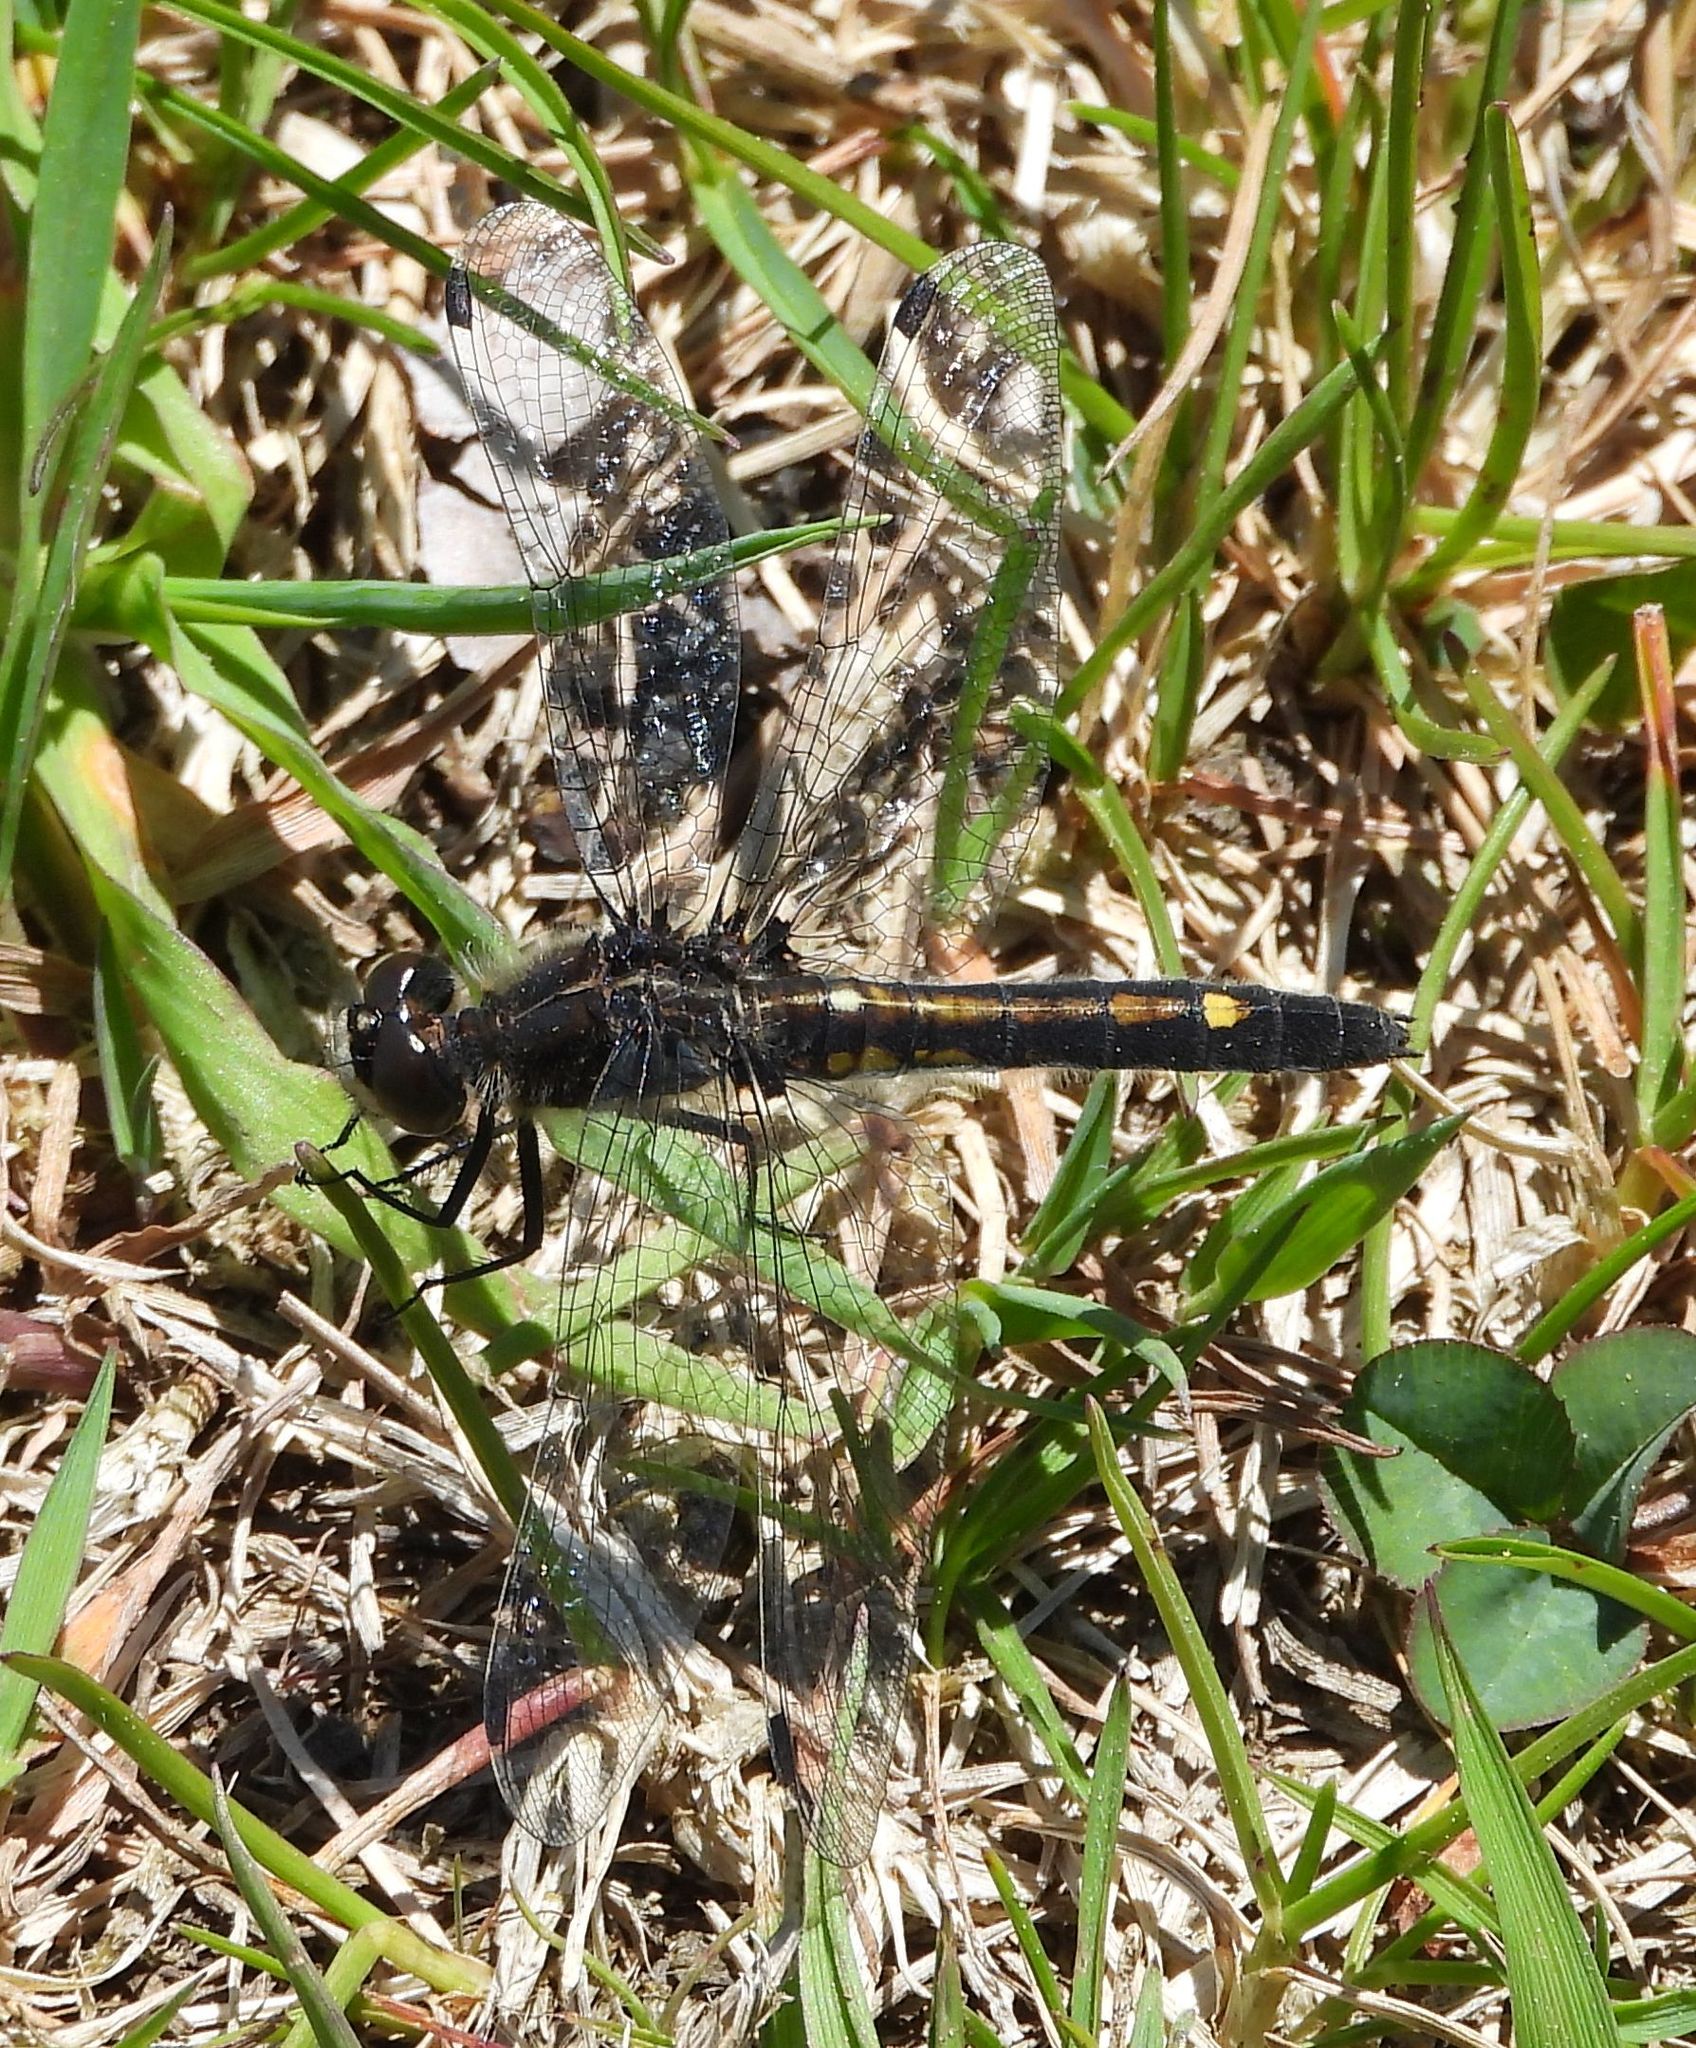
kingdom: Animalia
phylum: Arthropoda
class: Insecta
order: Odonata
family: Libellulidae
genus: Leucorrhinia
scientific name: Leucorrhinia intacta
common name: Dot-tailed whiteface
